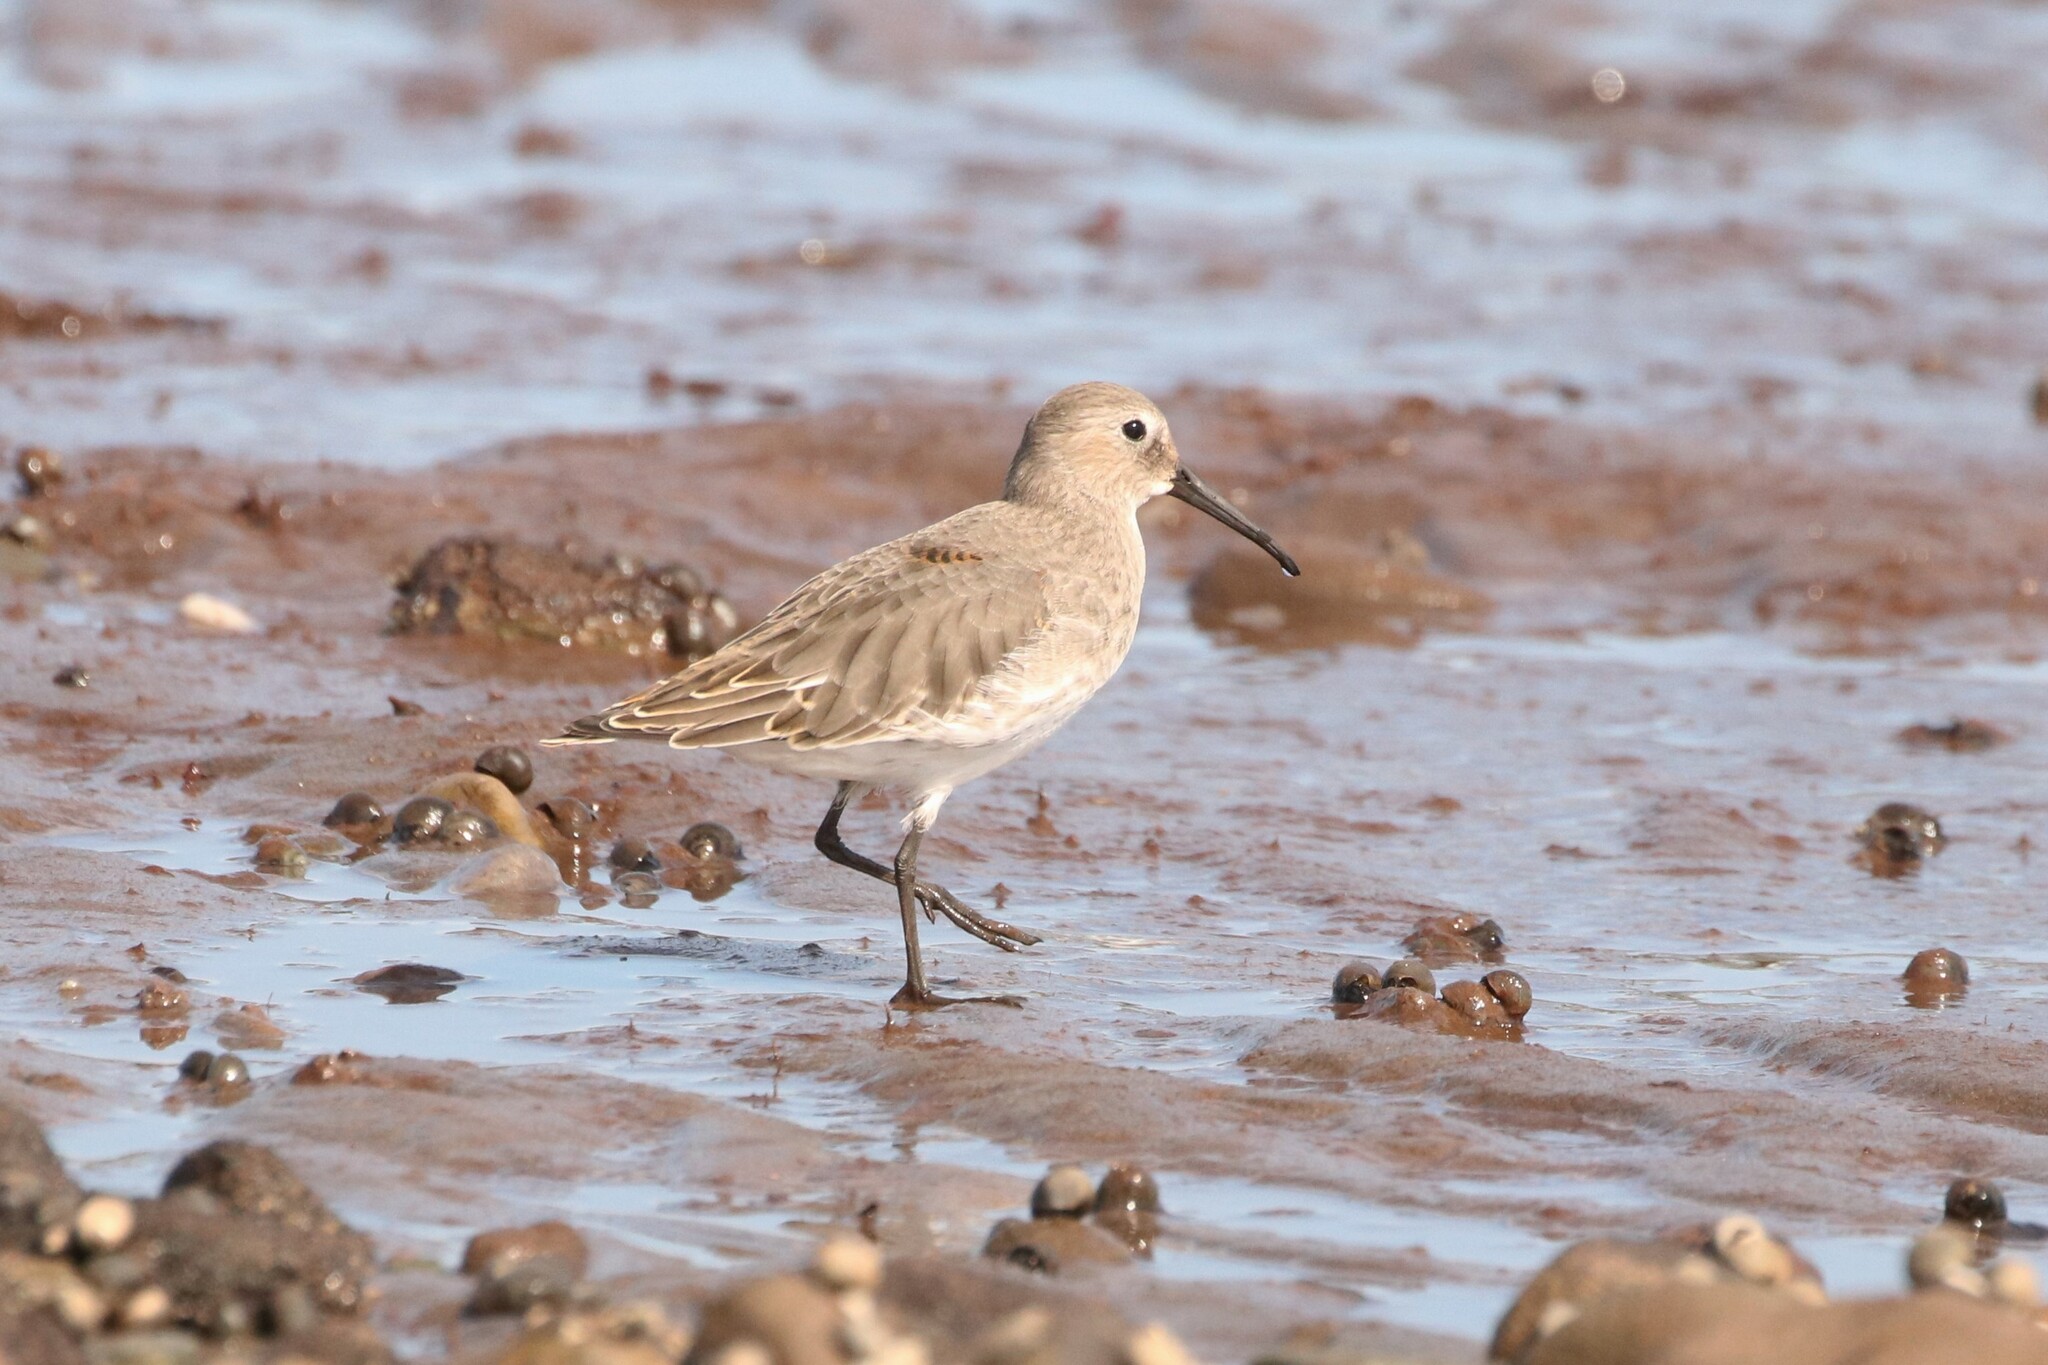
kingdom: Animalia
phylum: Chordata
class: Aves
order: Charadriiformes
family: Scolopacidae
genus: Calidris
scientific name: Calidris alpina
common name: Dunlin
